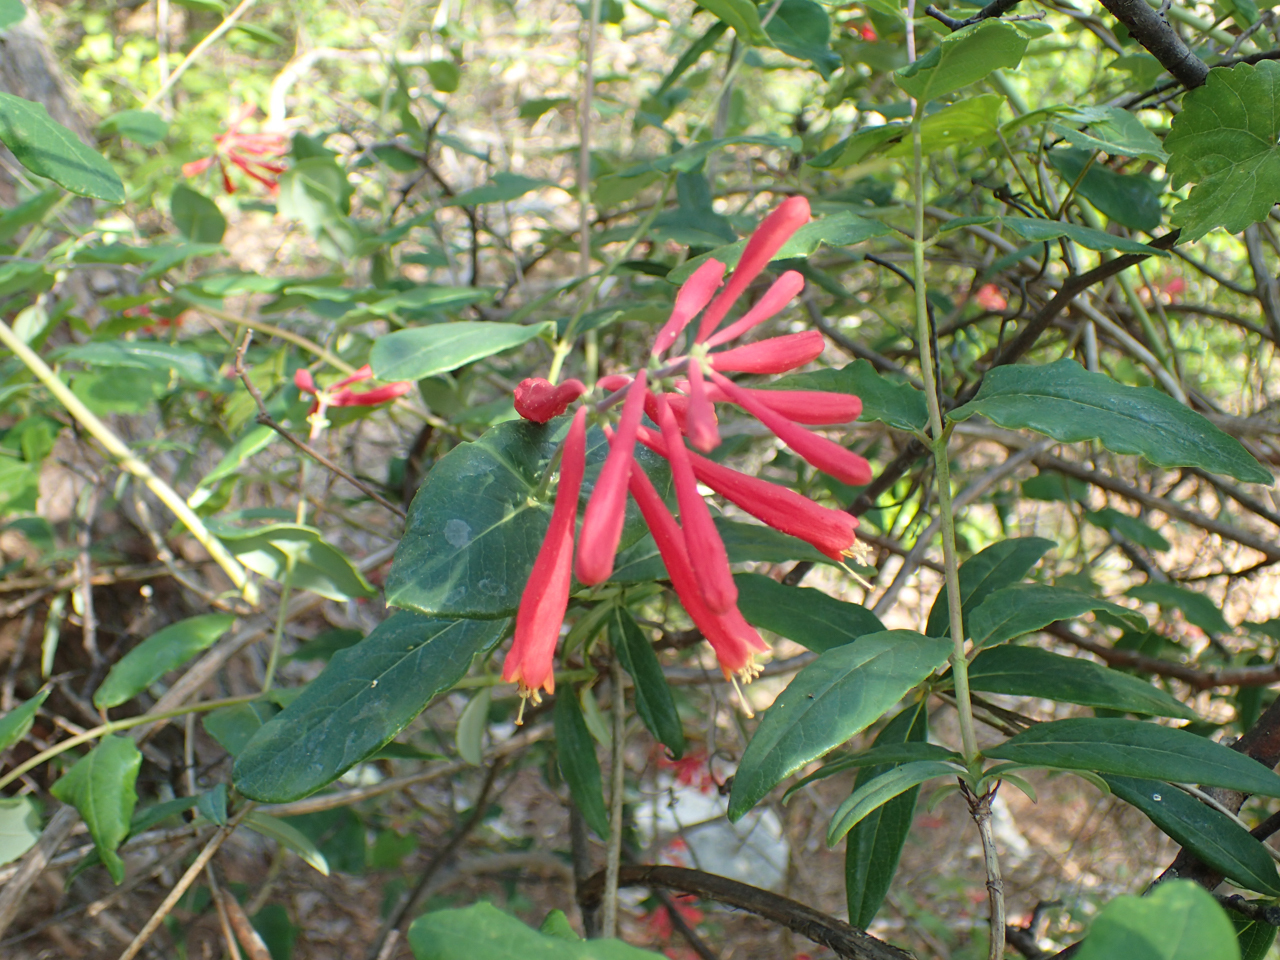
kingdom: Plantae
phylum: Tracheophyta
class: Magnoliopsida
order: Dipsacales
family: Caprifoliaceae
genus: Lonicera
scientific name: Lonicera sempervirens
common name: Coral honeysuckle
